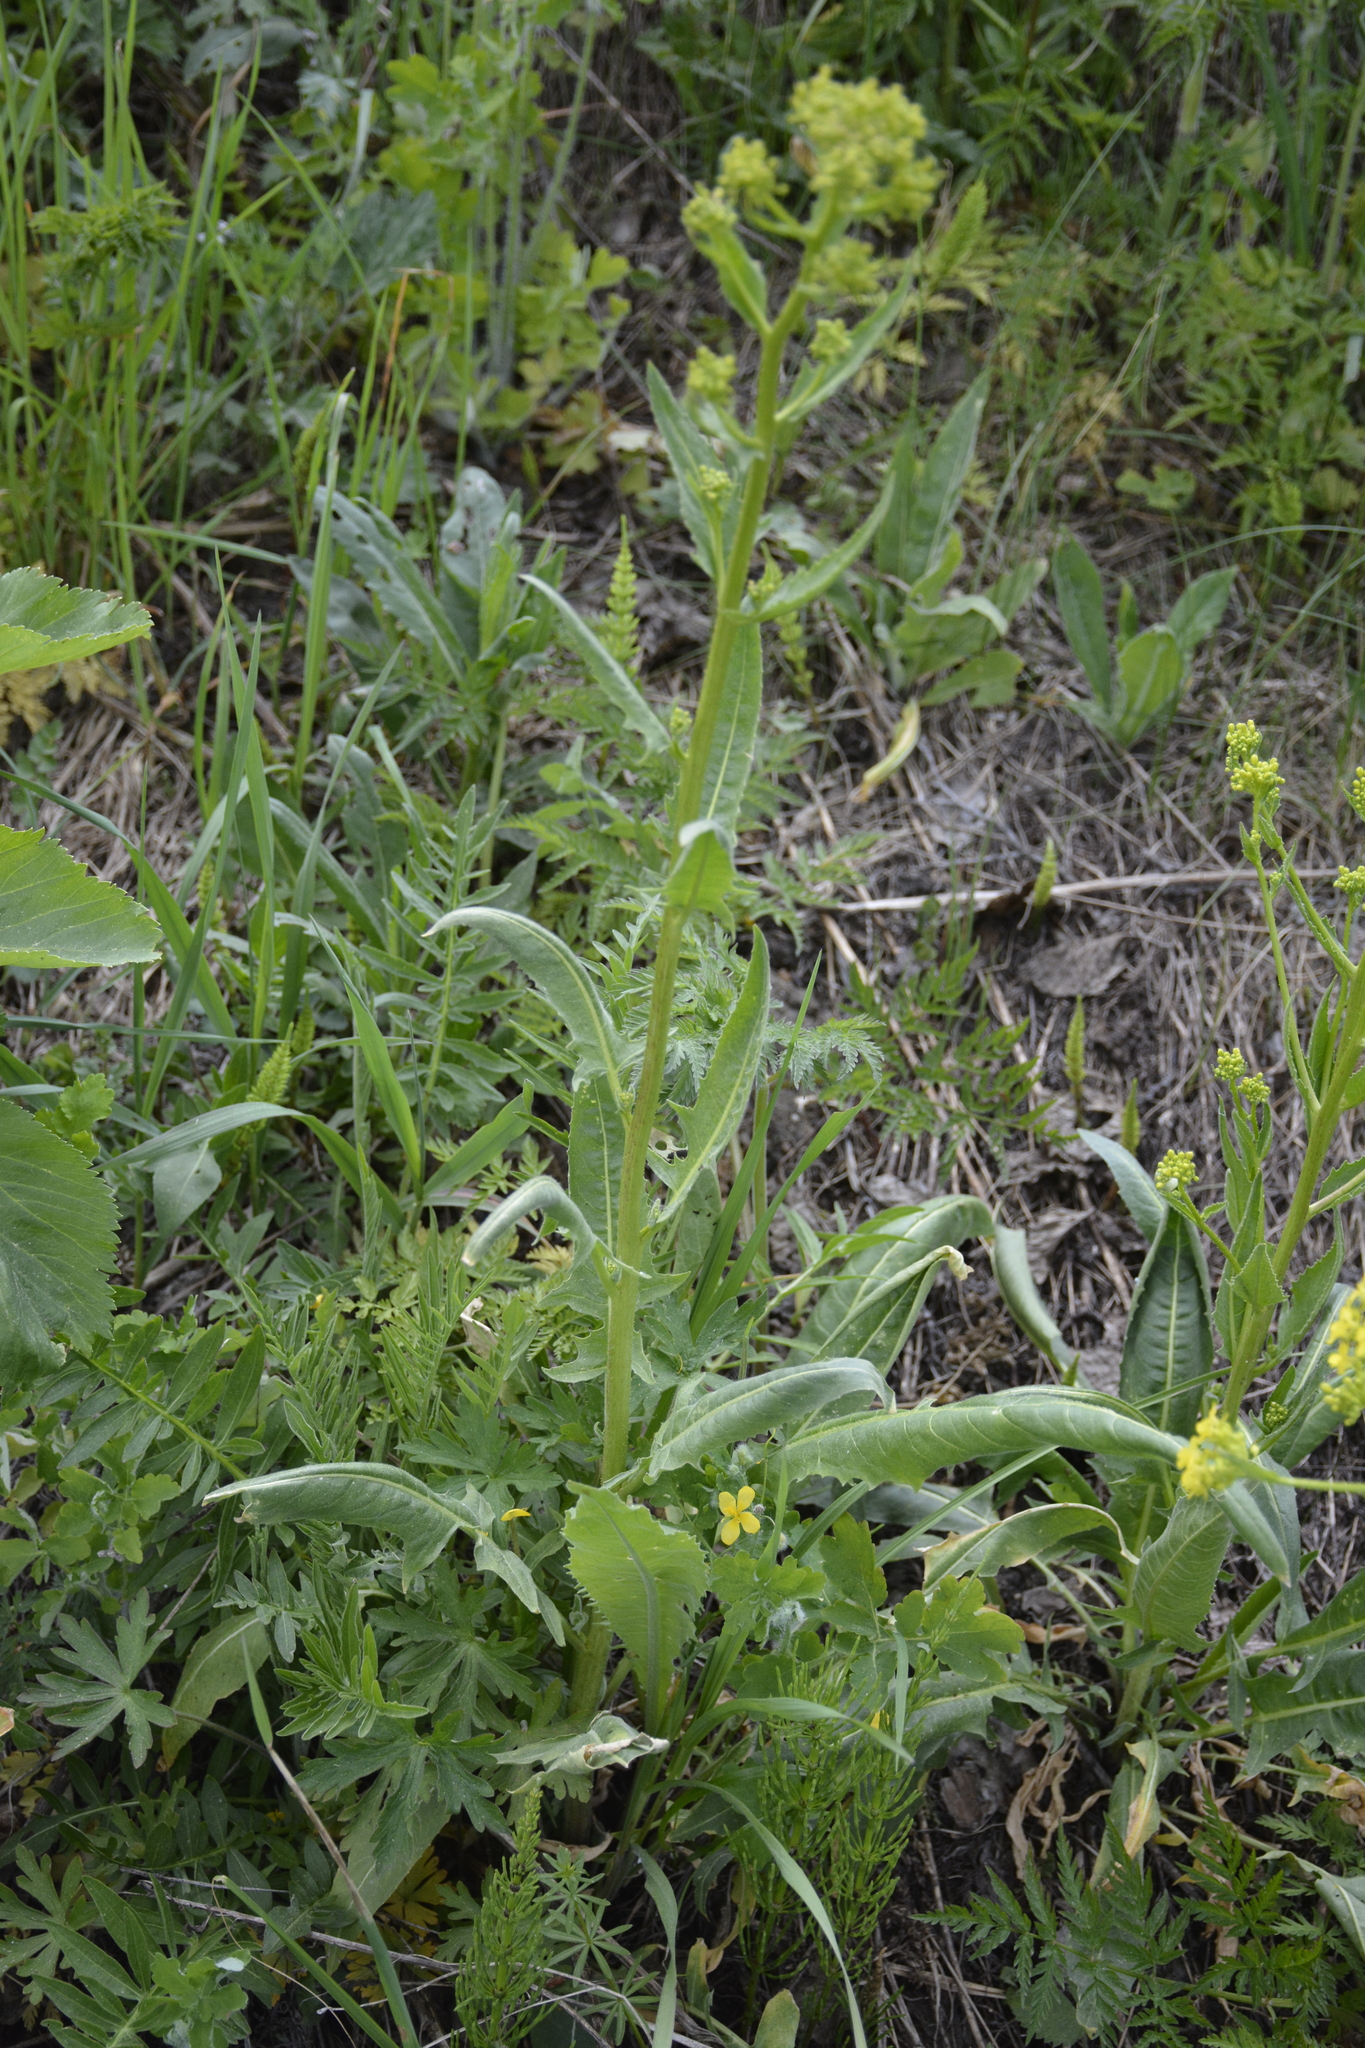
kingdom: Plantae
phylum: Tracheophyta
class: Magnoliopsida
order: Brassicales
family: Brassicaceae
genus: Bunias
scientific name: Bunias orientalis
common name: Warty-cabbage
